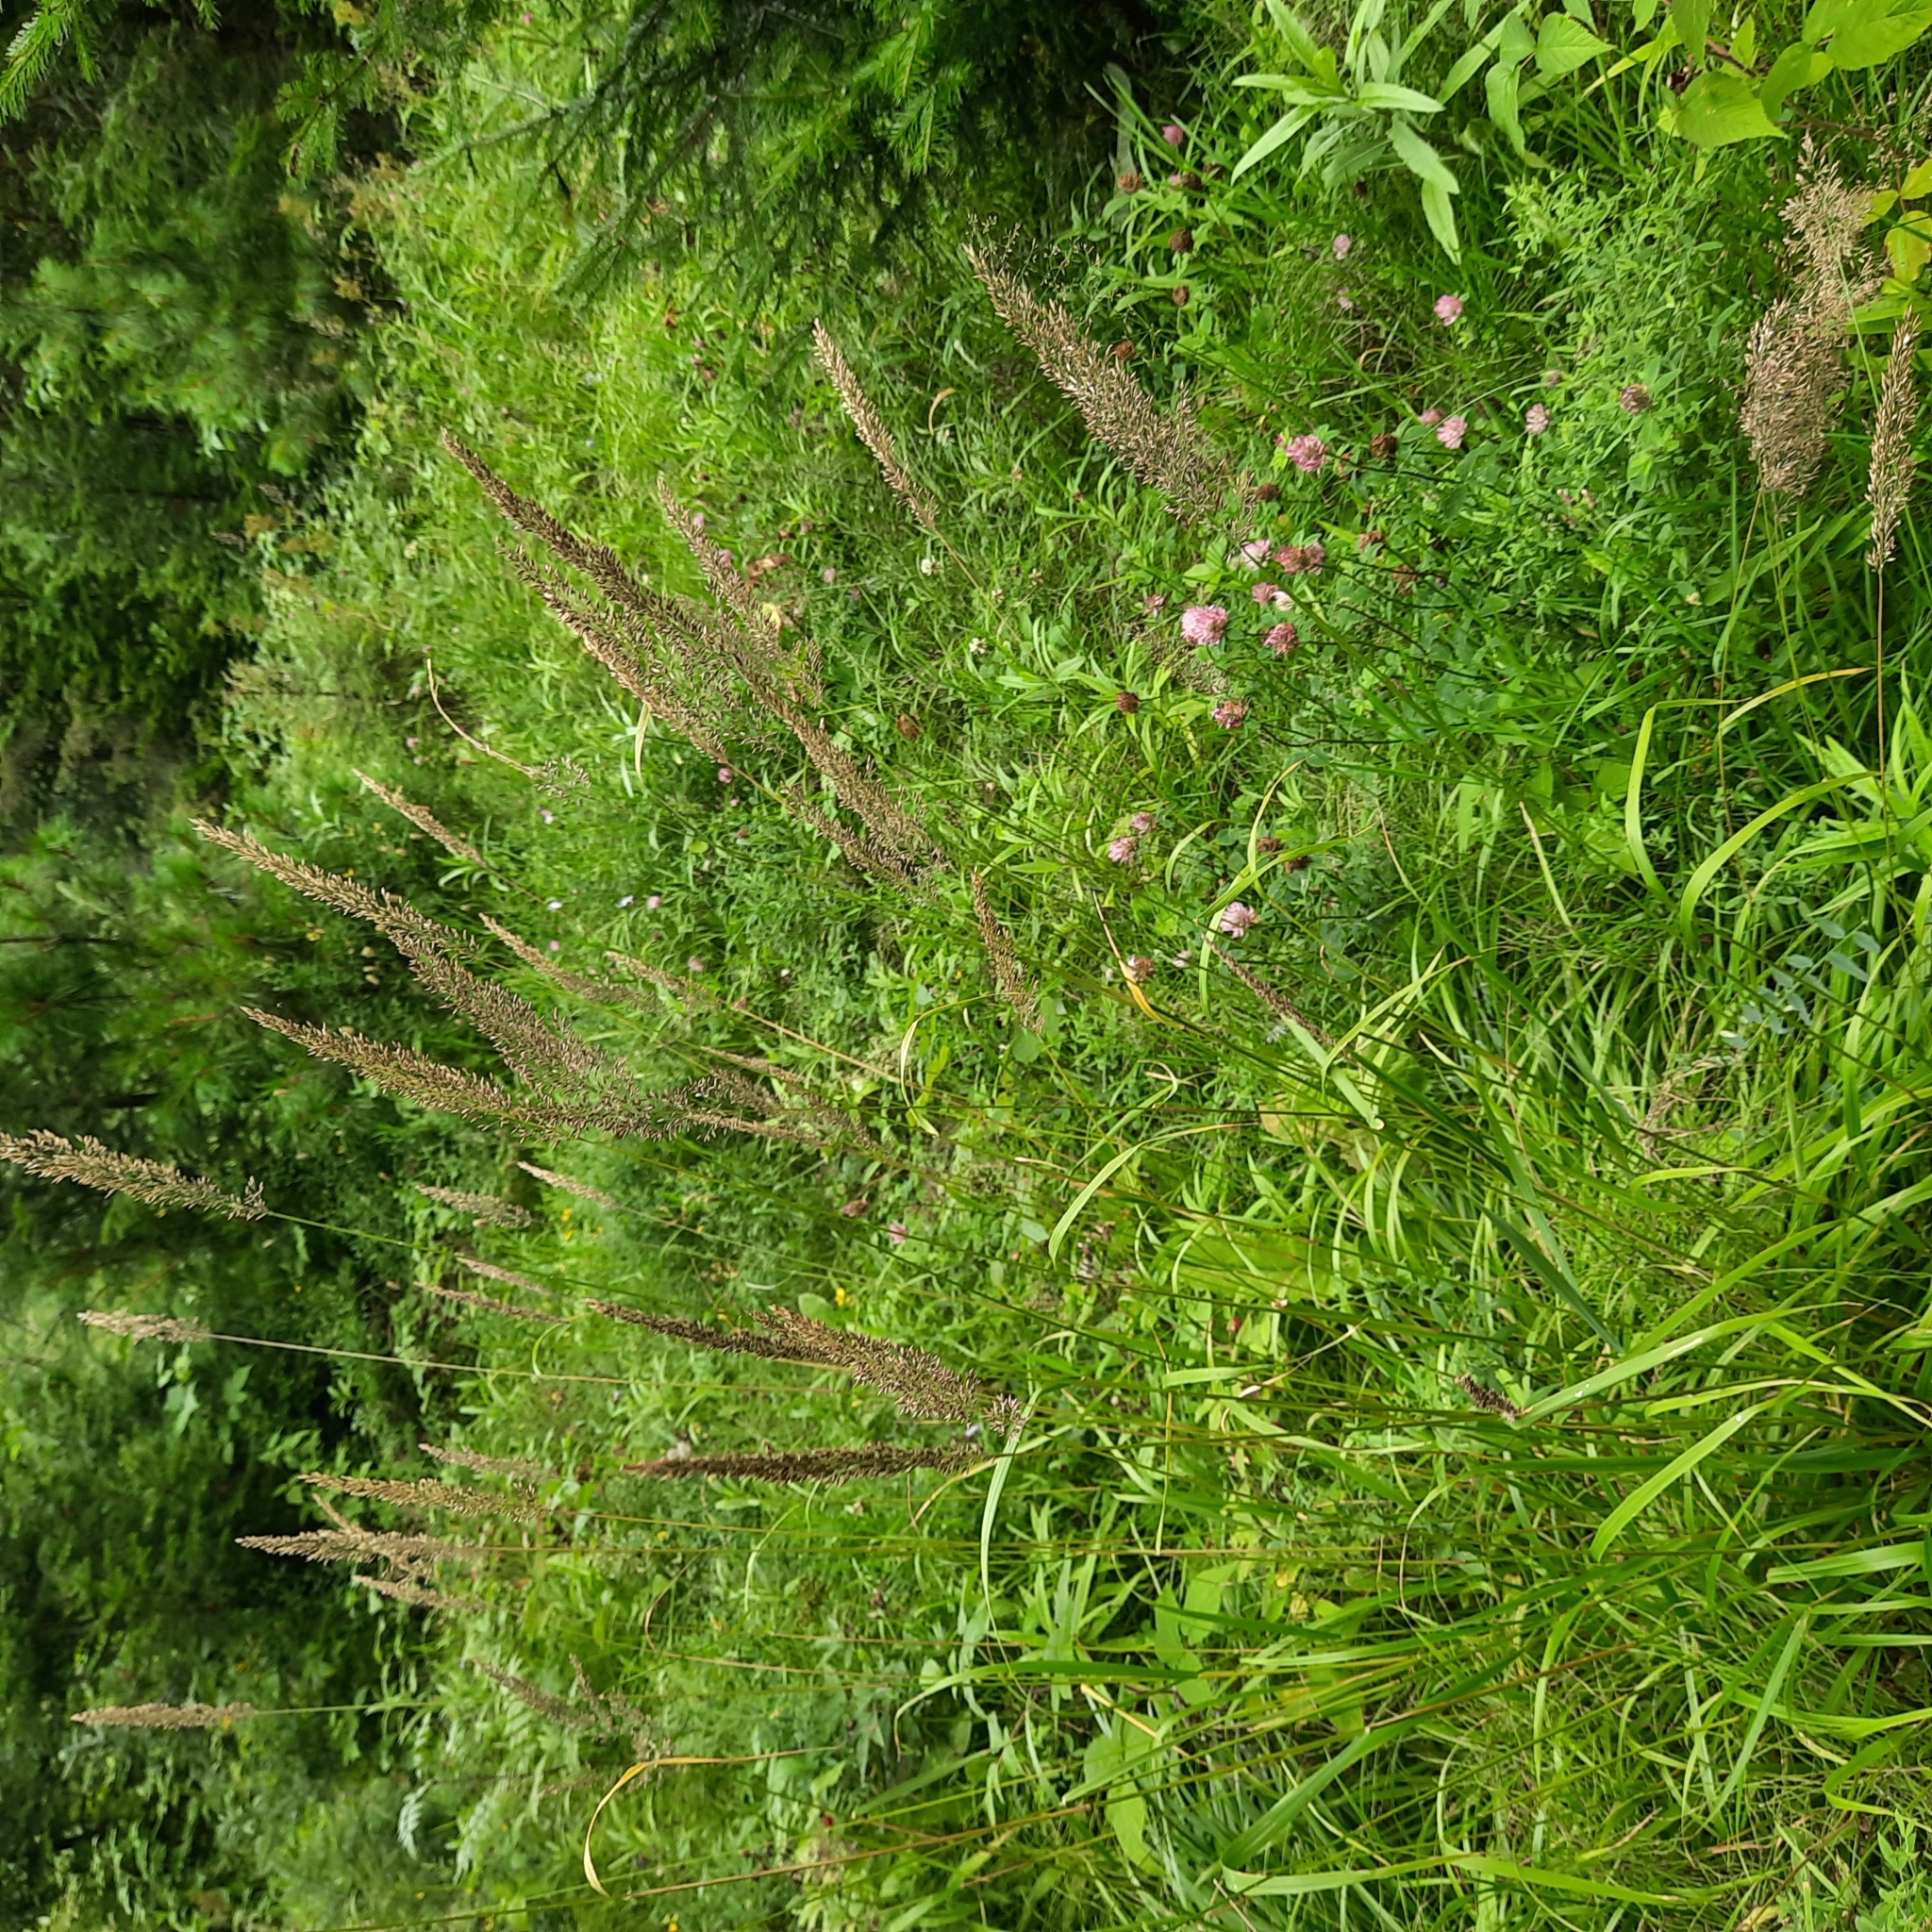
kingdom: Plantae
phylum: Tracheophyta
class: Liliopsida
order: Poales
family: Poaceae
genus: Agrostis
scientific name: Agrostis stolonifera
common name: Creeping bentgrass
